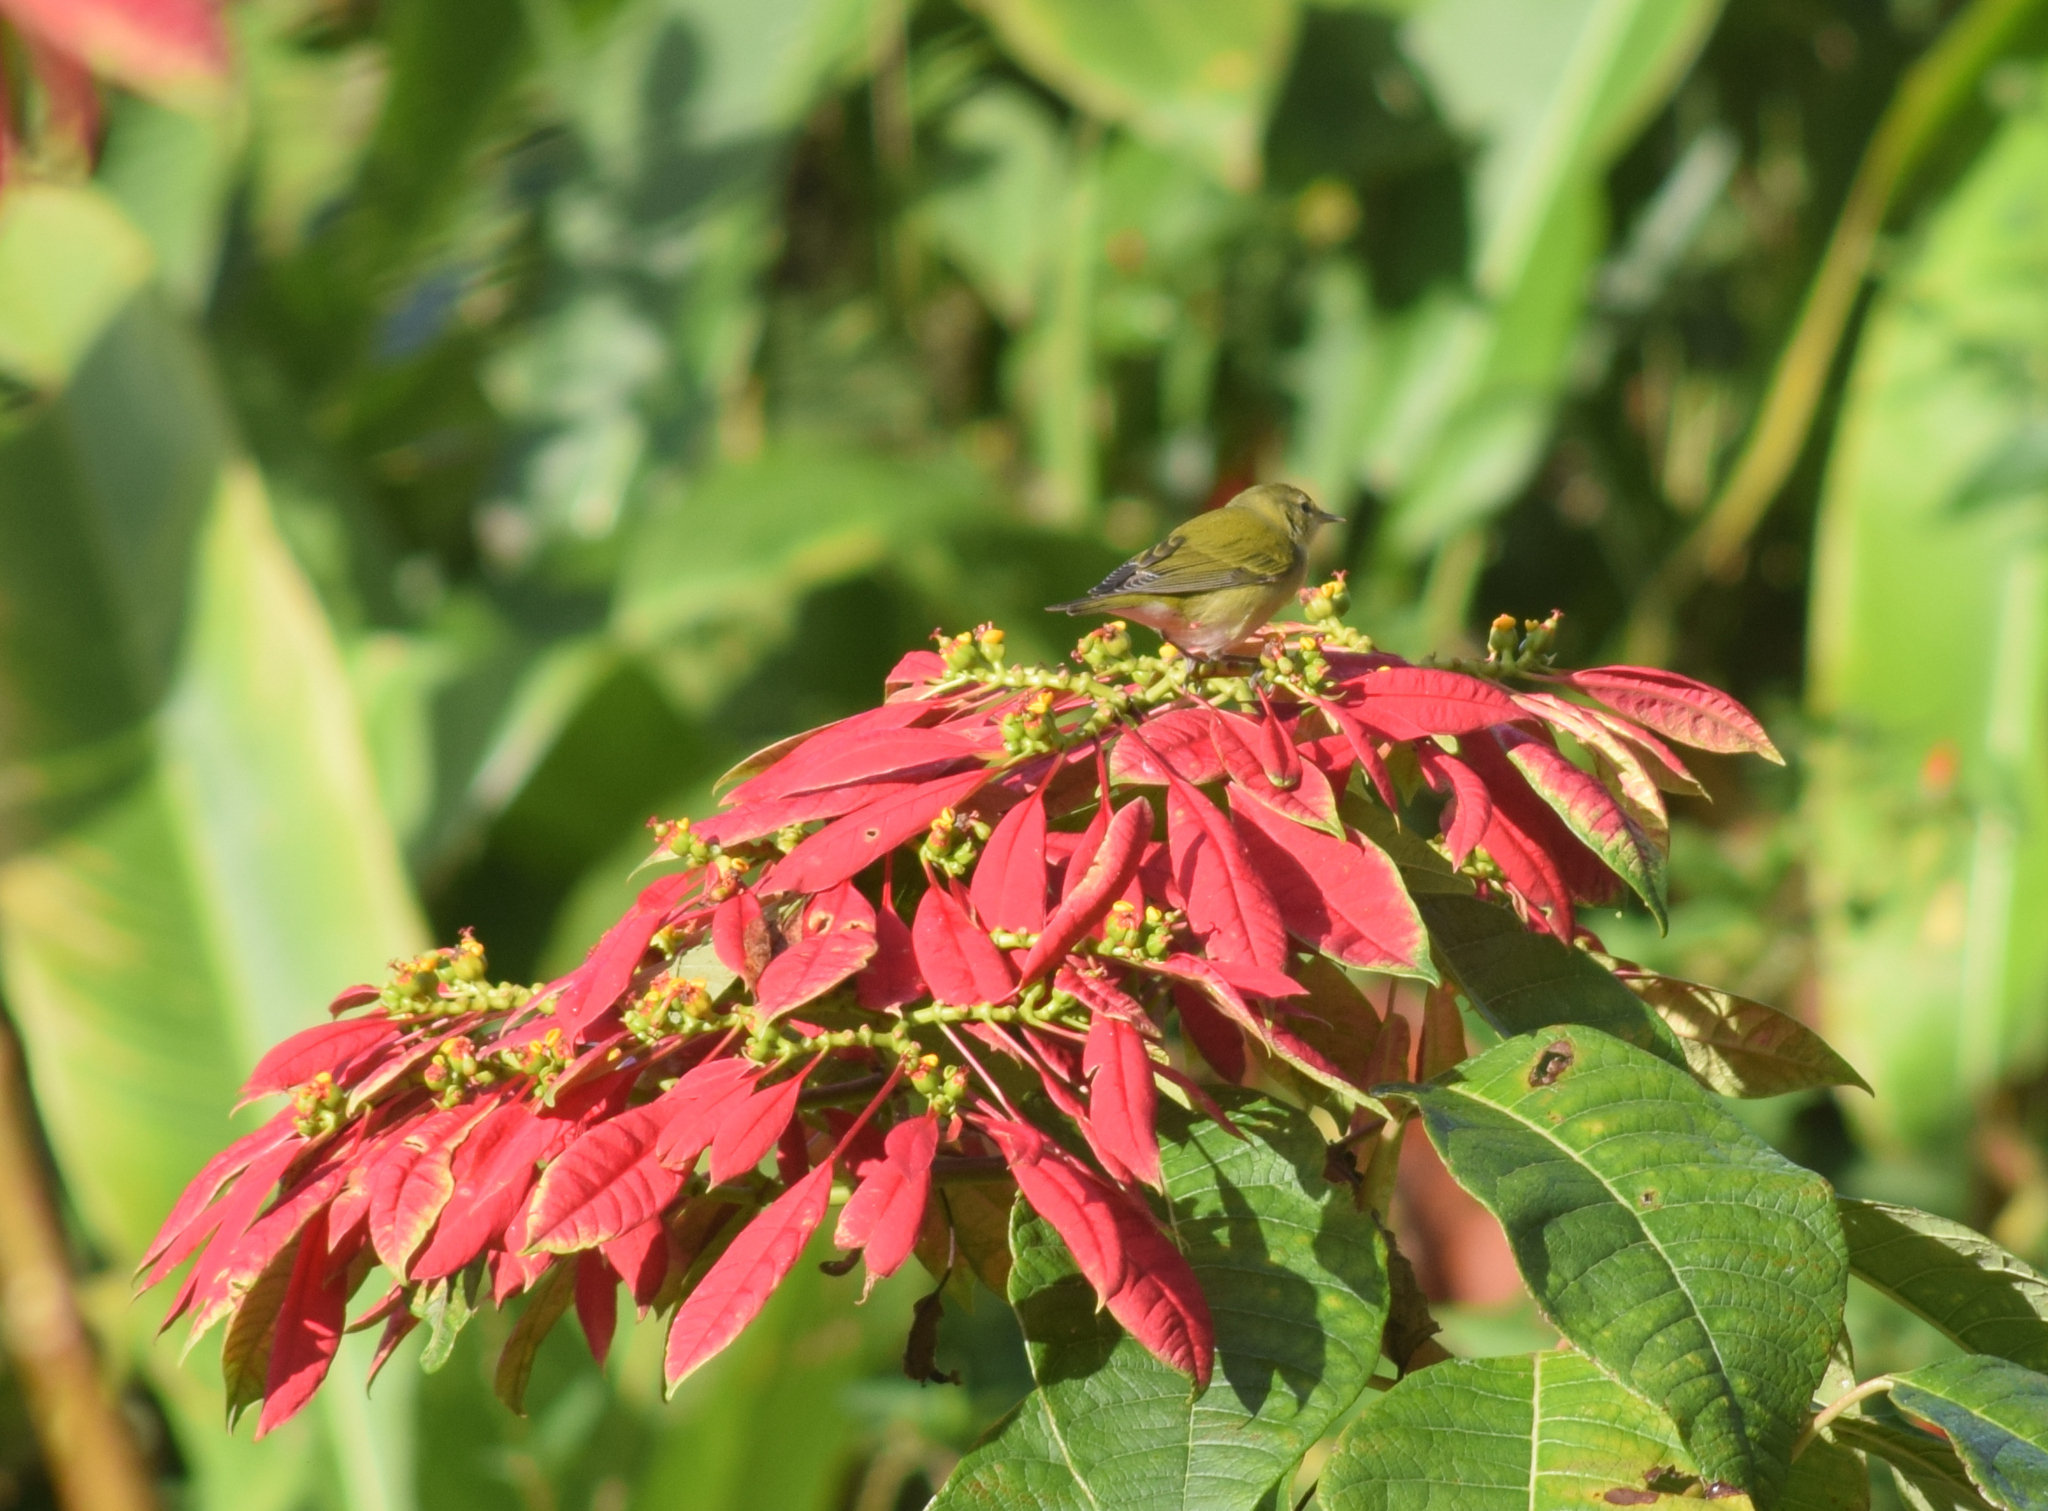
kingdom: Animalia
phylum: Chordata
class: Aves
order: Passeriformes
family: Parulidae
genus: Leiothlypis
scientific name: Leiothlypis peregrina
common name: Tennessee warbler
